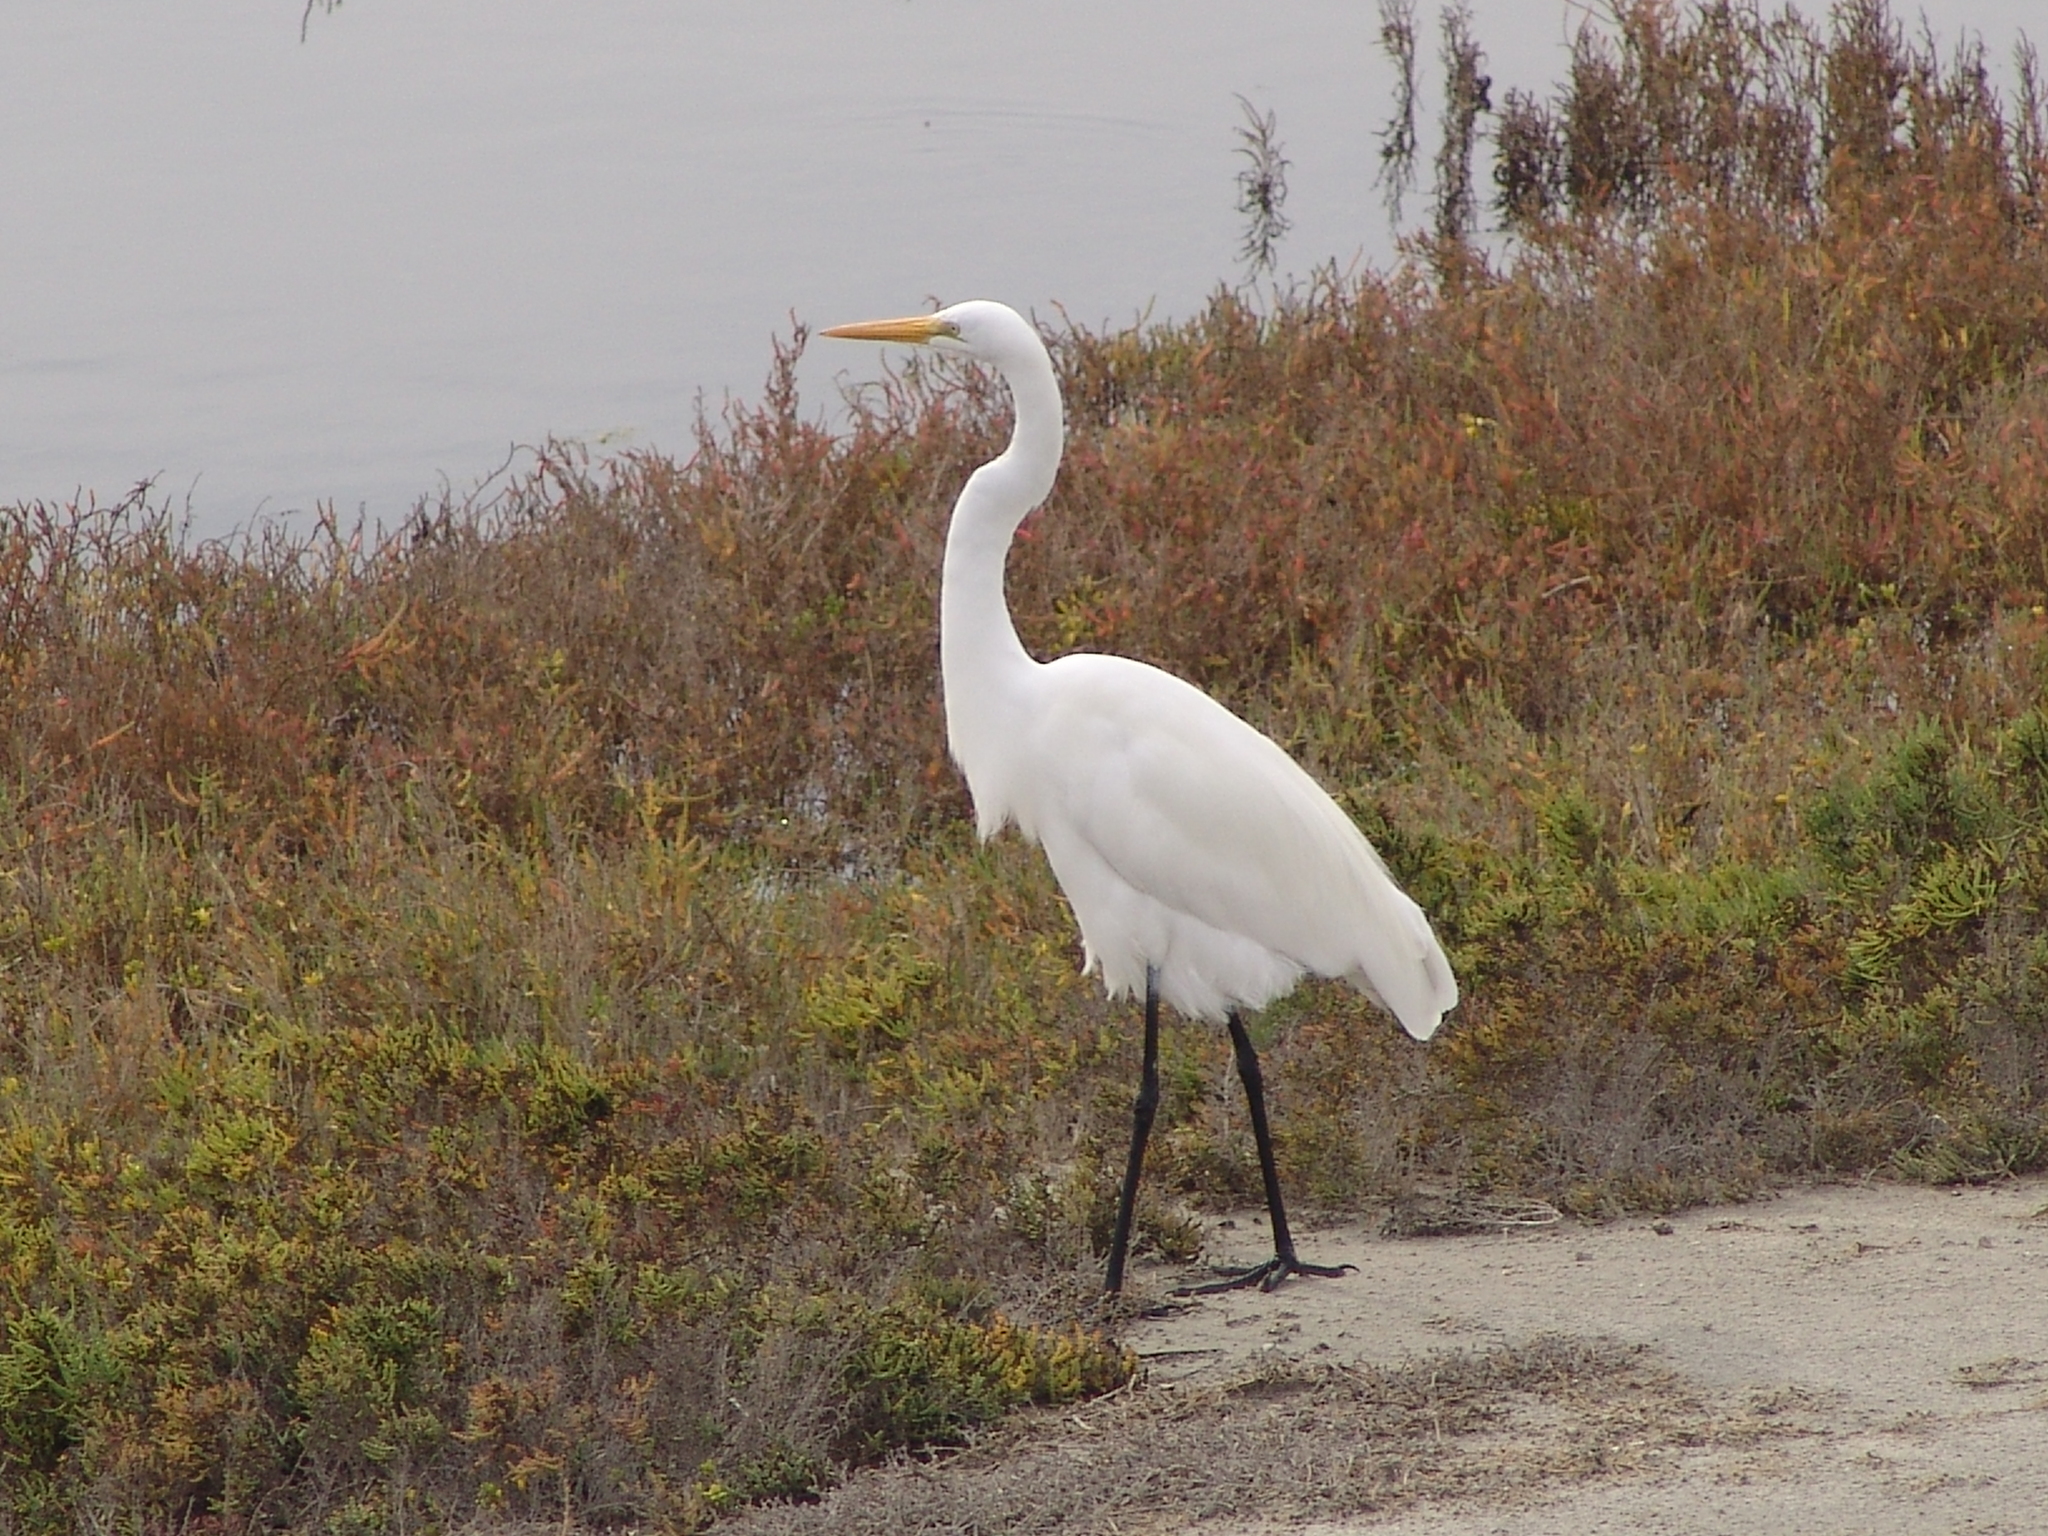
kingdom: Animalia
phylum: Chordata
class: Aves
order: Pelecaniformes
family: Ardeidae
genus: Ardea
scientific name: Ardea alba
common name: Great egret
